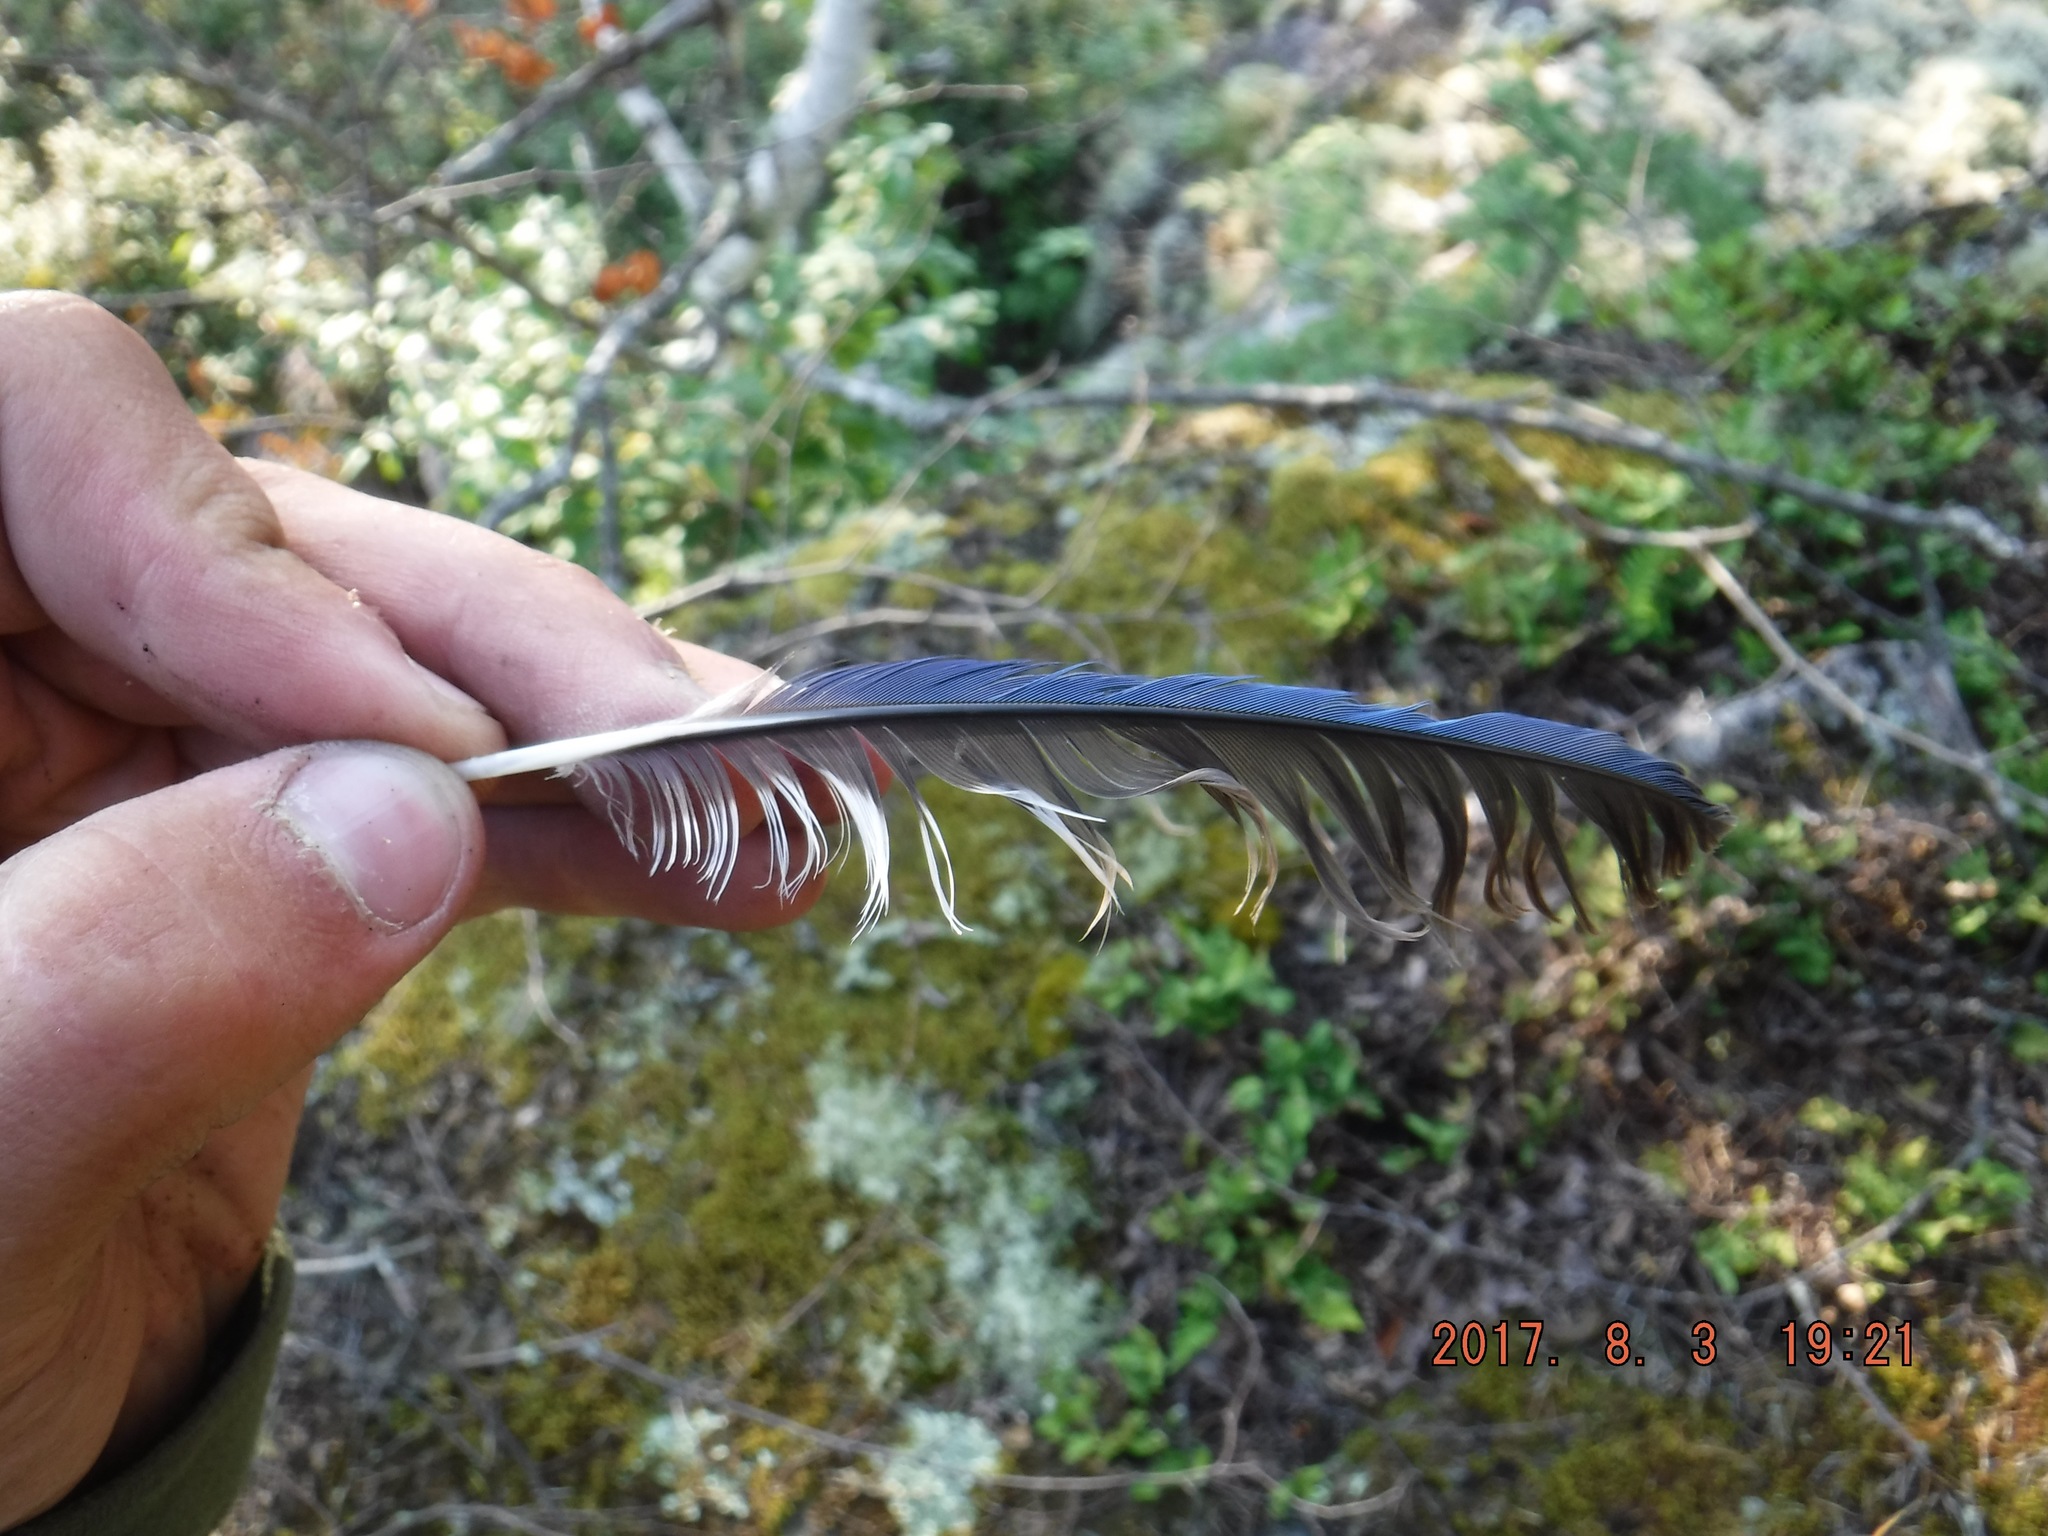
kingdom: Animalia
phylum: Chordata
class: Aves
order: Passeriformes
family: Corvidae
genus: Cyanocitta
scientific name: Cyanocitta cristata
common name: Blue jay
